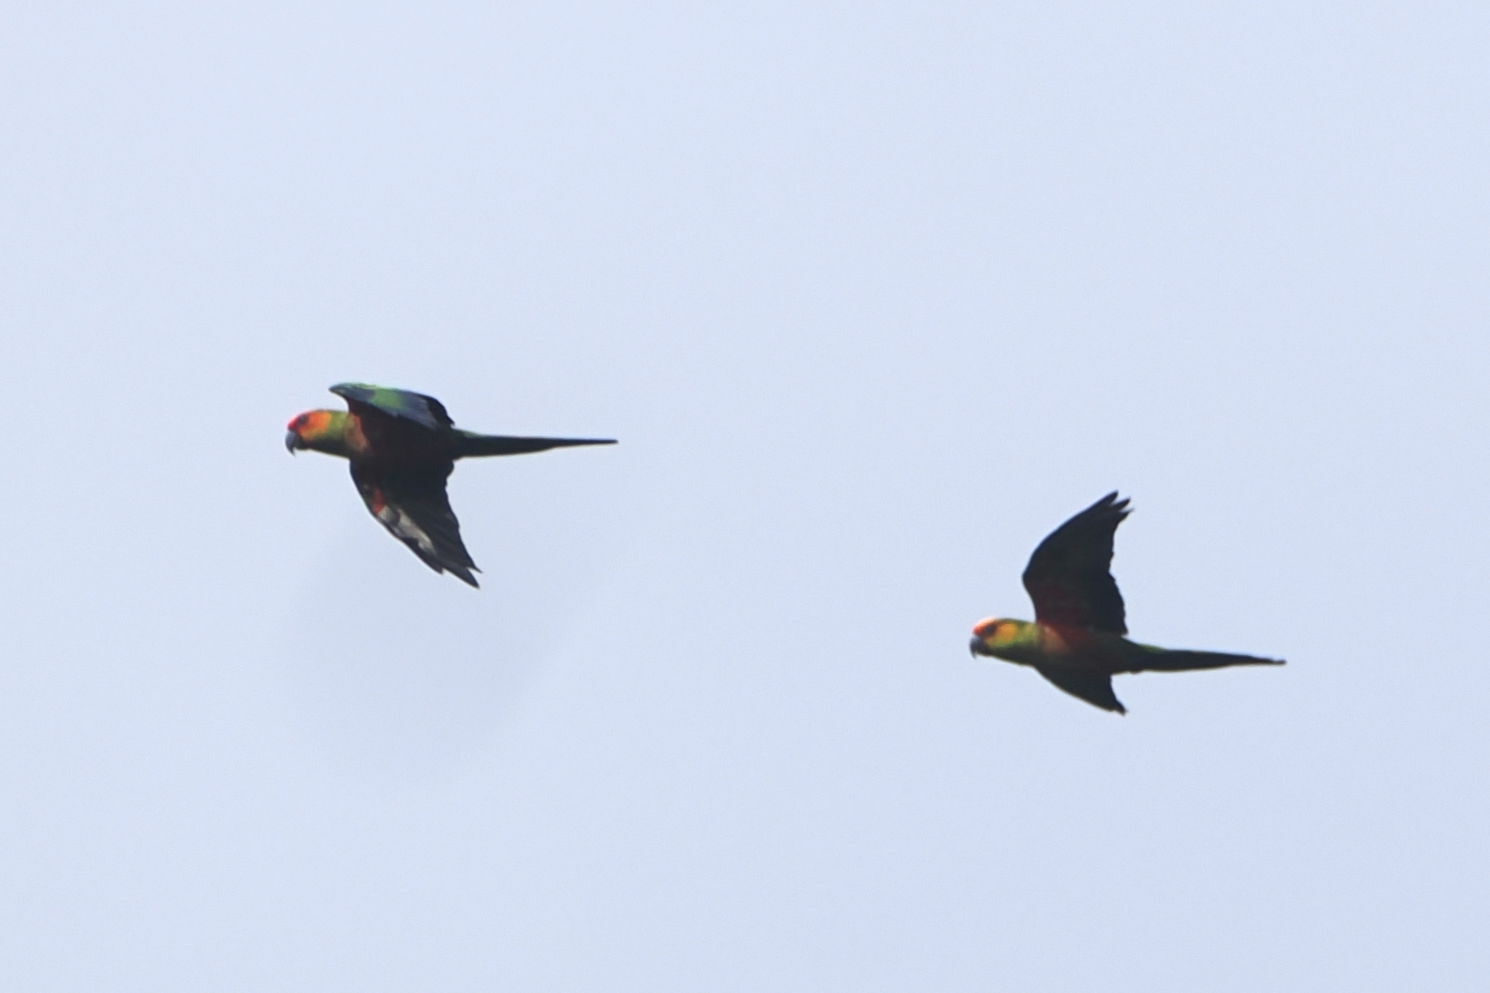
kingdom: Animalia
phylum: Chordata
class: Aves
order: Psittaciformes
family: Psittacidae
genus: Aratinga
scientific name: Aratinga auricapillus
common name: Golden-capped parakeet
